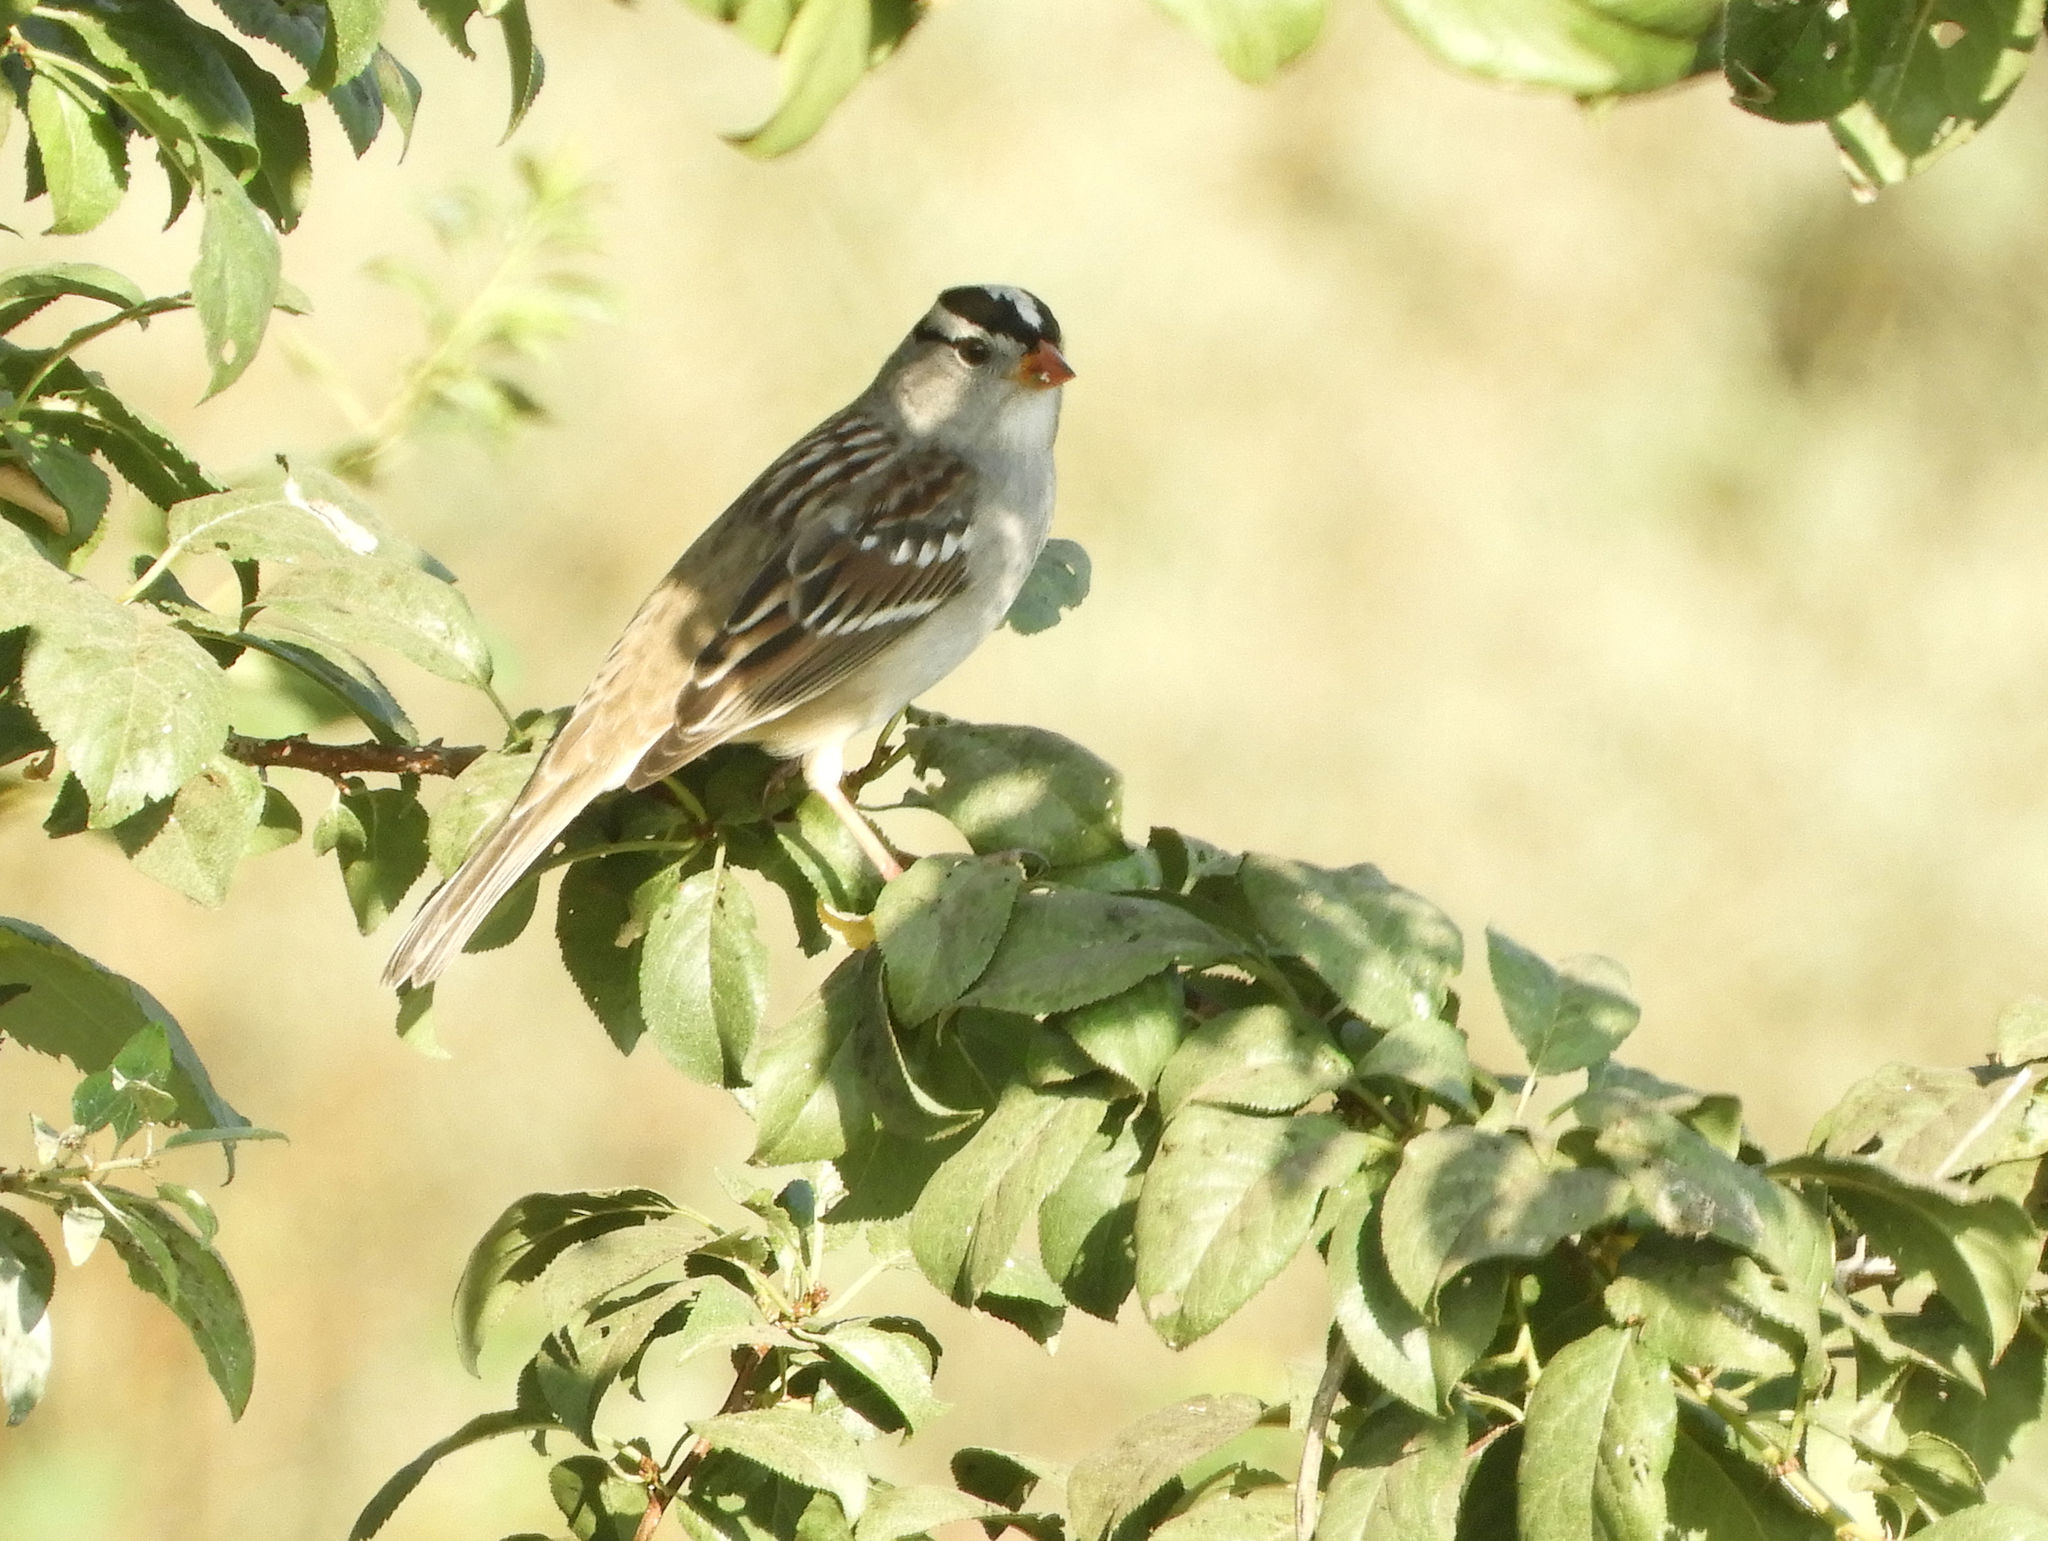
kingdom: Animalia
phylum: Chordata
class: Aves
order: Passeriformes
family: Passerellidae
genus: Zonotrichia
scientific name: Zonotrichia leucophrys
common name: White-crowned sparrow
